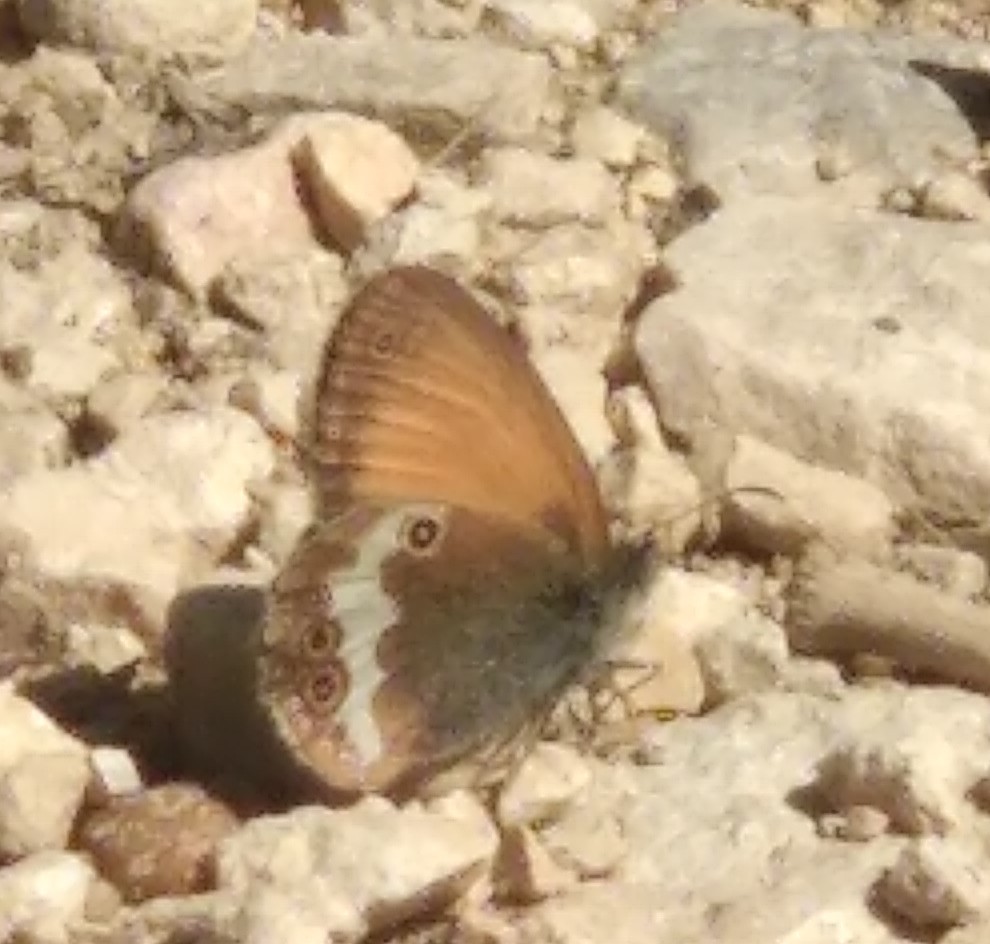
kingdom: Animalia
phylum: Arthropoda
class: Insecta
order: Lepidoptera
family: Nymphalidae
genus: Coenonympha
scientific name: Coenonympha arcania
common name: Pearly heath
